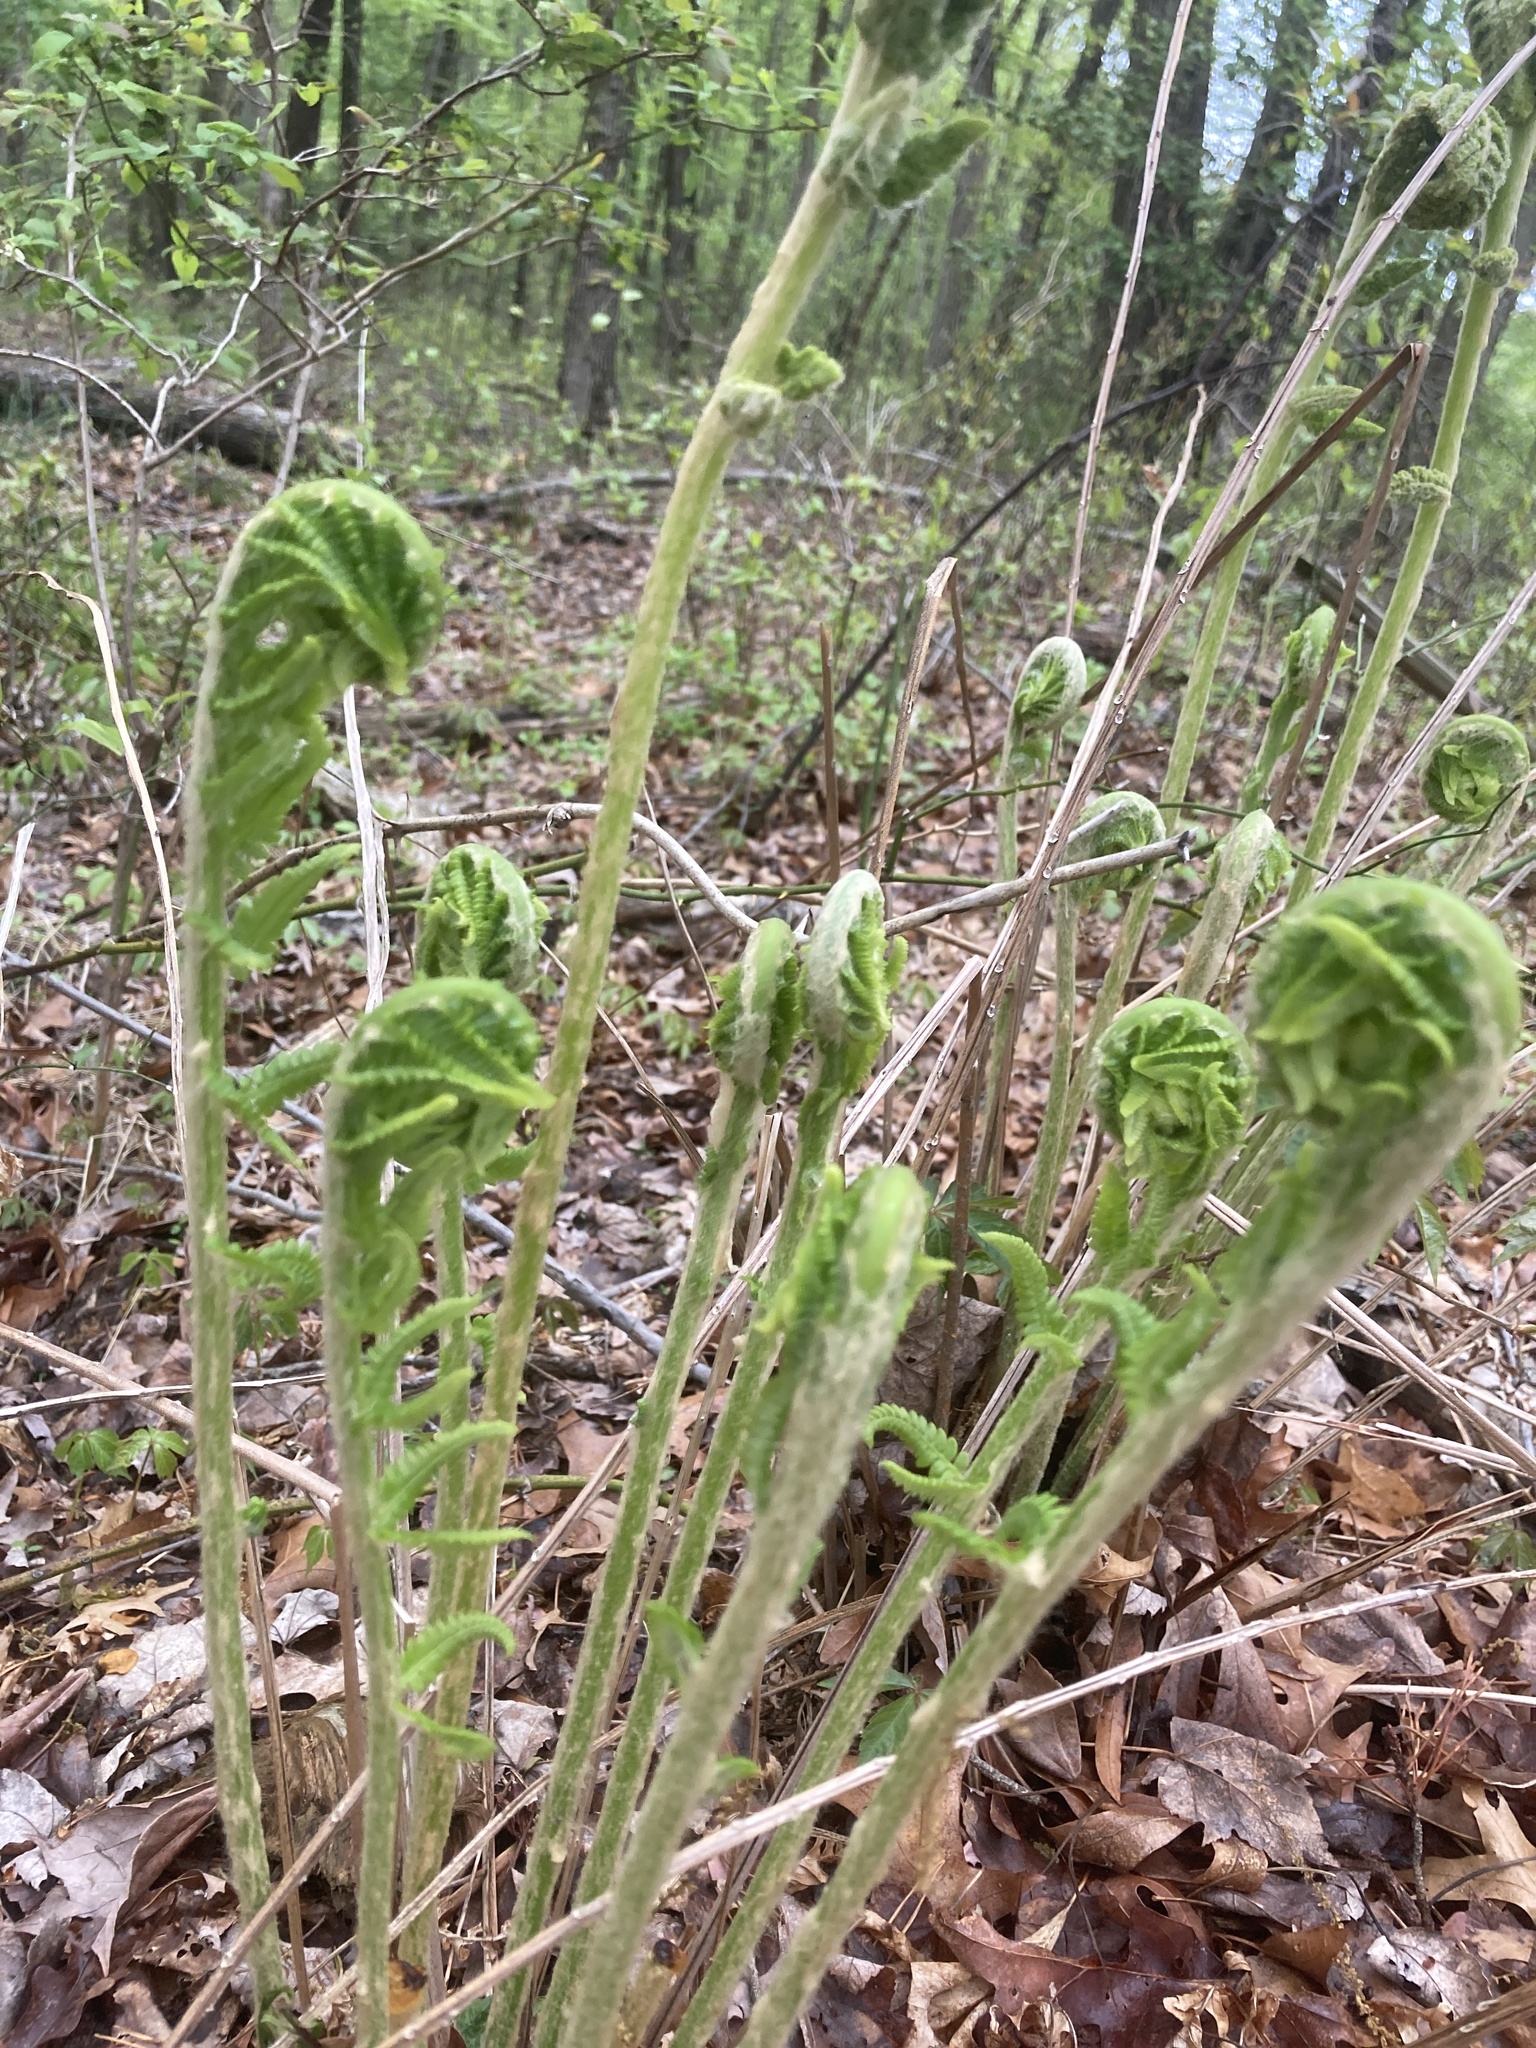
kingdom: Plantae
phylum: Tracheophyta
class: Polypodiopsida
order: Osmundales
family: Osmundaceae
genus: Osmundastrum
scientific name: Osmundastrum cinnamomeum
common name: Cinnamon fern
